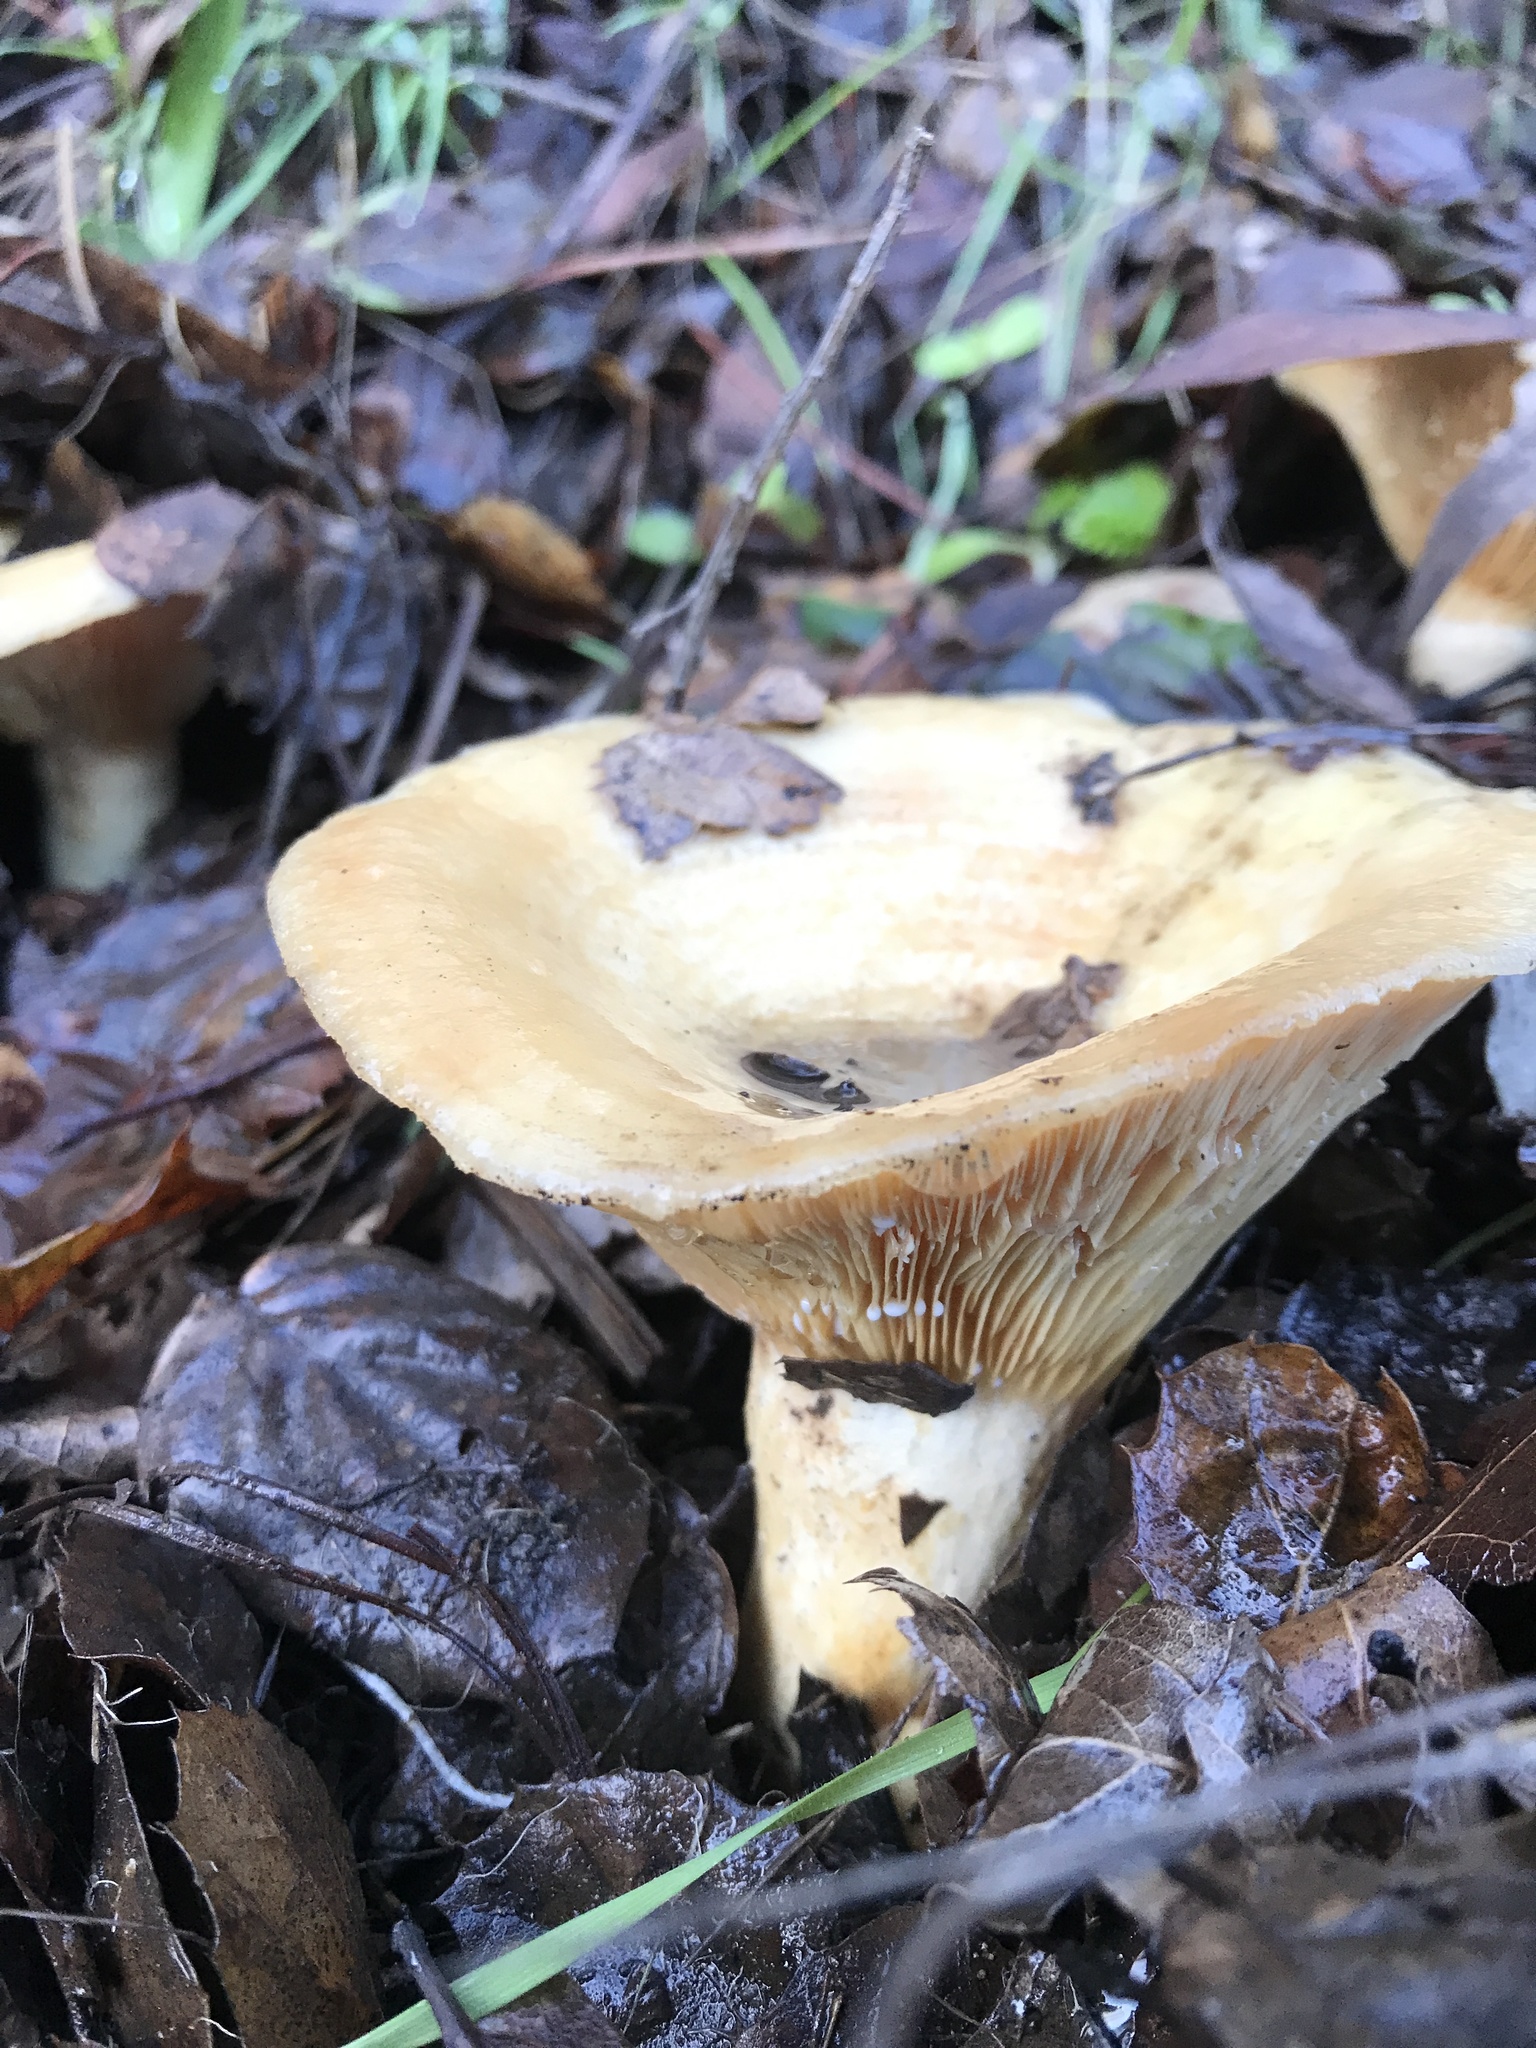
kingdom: Fungi
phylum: Basidiomycota
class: Agaricomycetes
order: Russulales
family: Russulaceae
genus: Lactarius
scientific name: Lactarius alnicola
